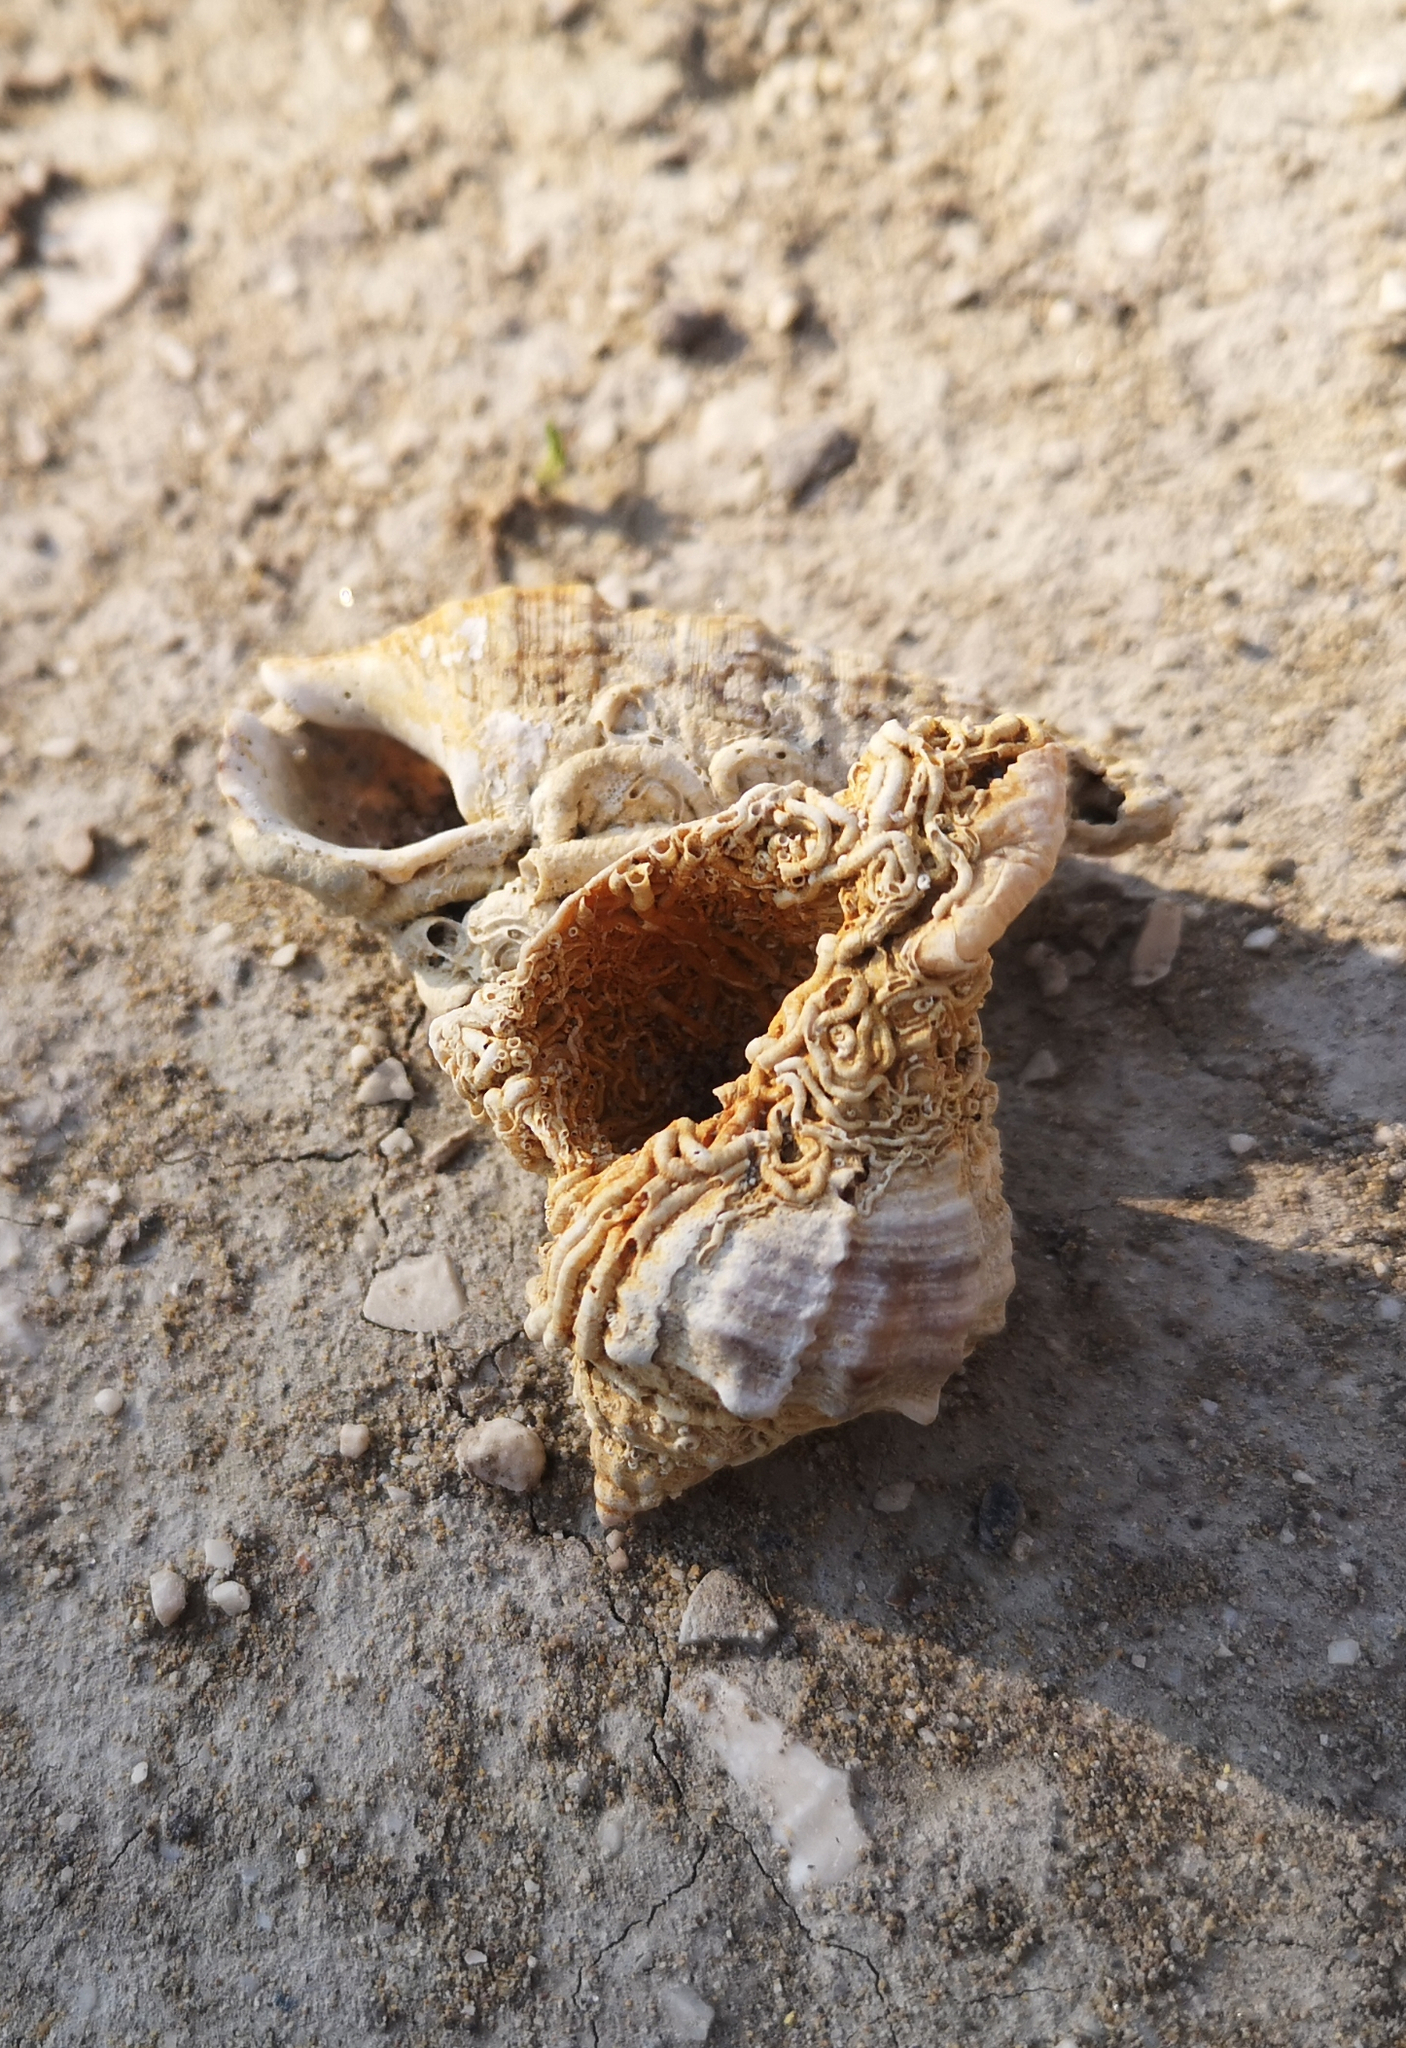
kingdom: Animalia
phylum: Mollusca
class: Gastropoda
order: Neogastropoda
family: Muricidae
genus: Hexaplex
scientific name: Hexaplex trunculus
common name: Banded dye-murex
